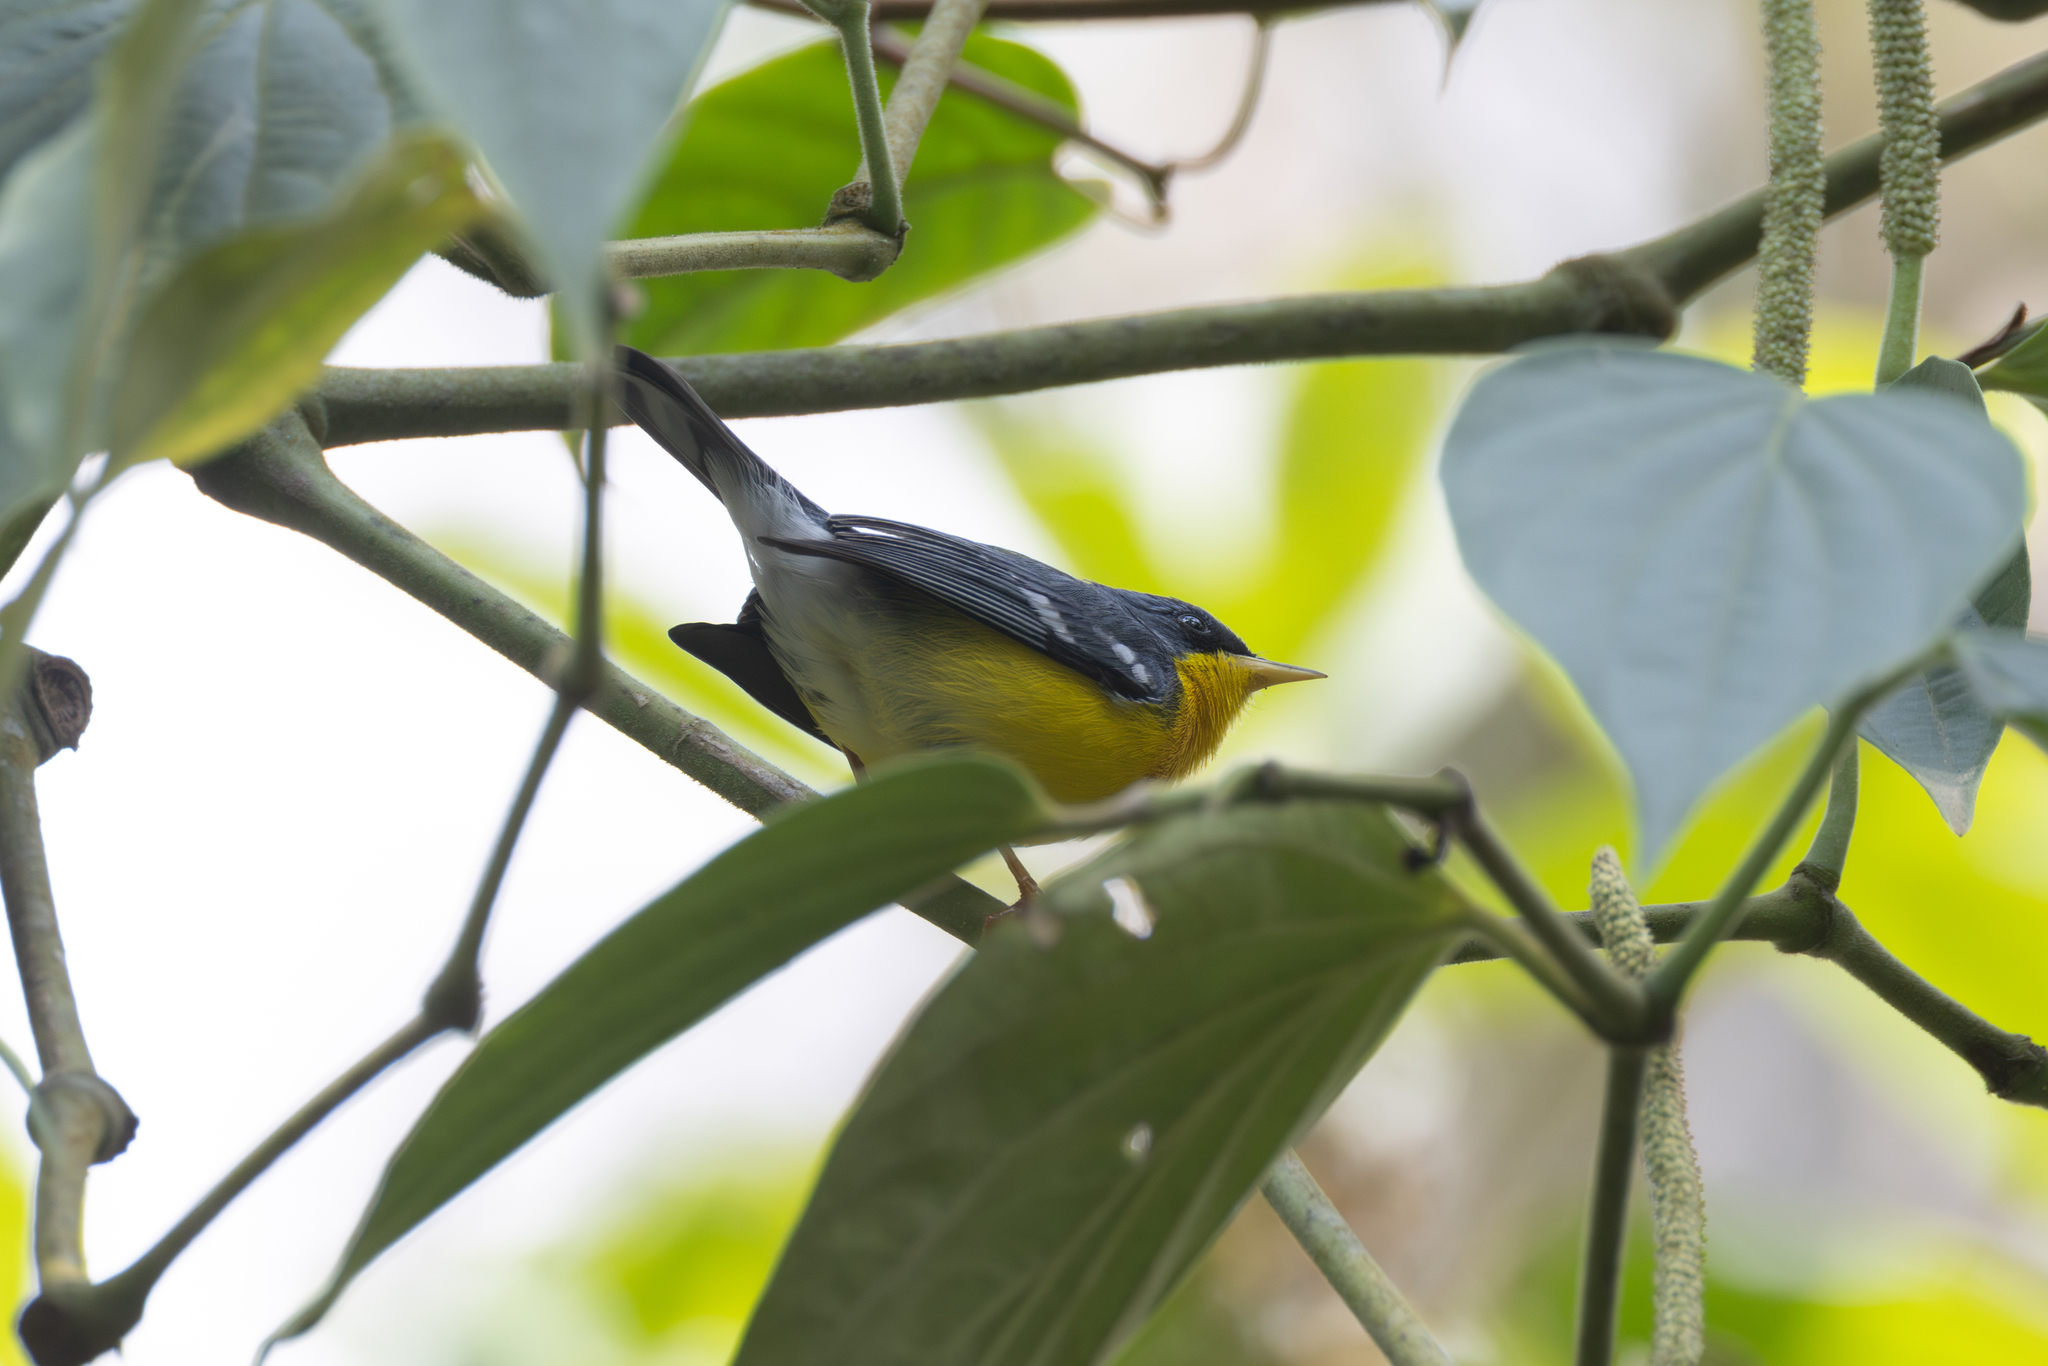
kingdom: Animalia
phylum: Chordata
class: Aves
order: Passeriformes
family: Parulidae
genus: Setophaga
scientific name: Setophaga pitiayumi
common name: Tropical parula
